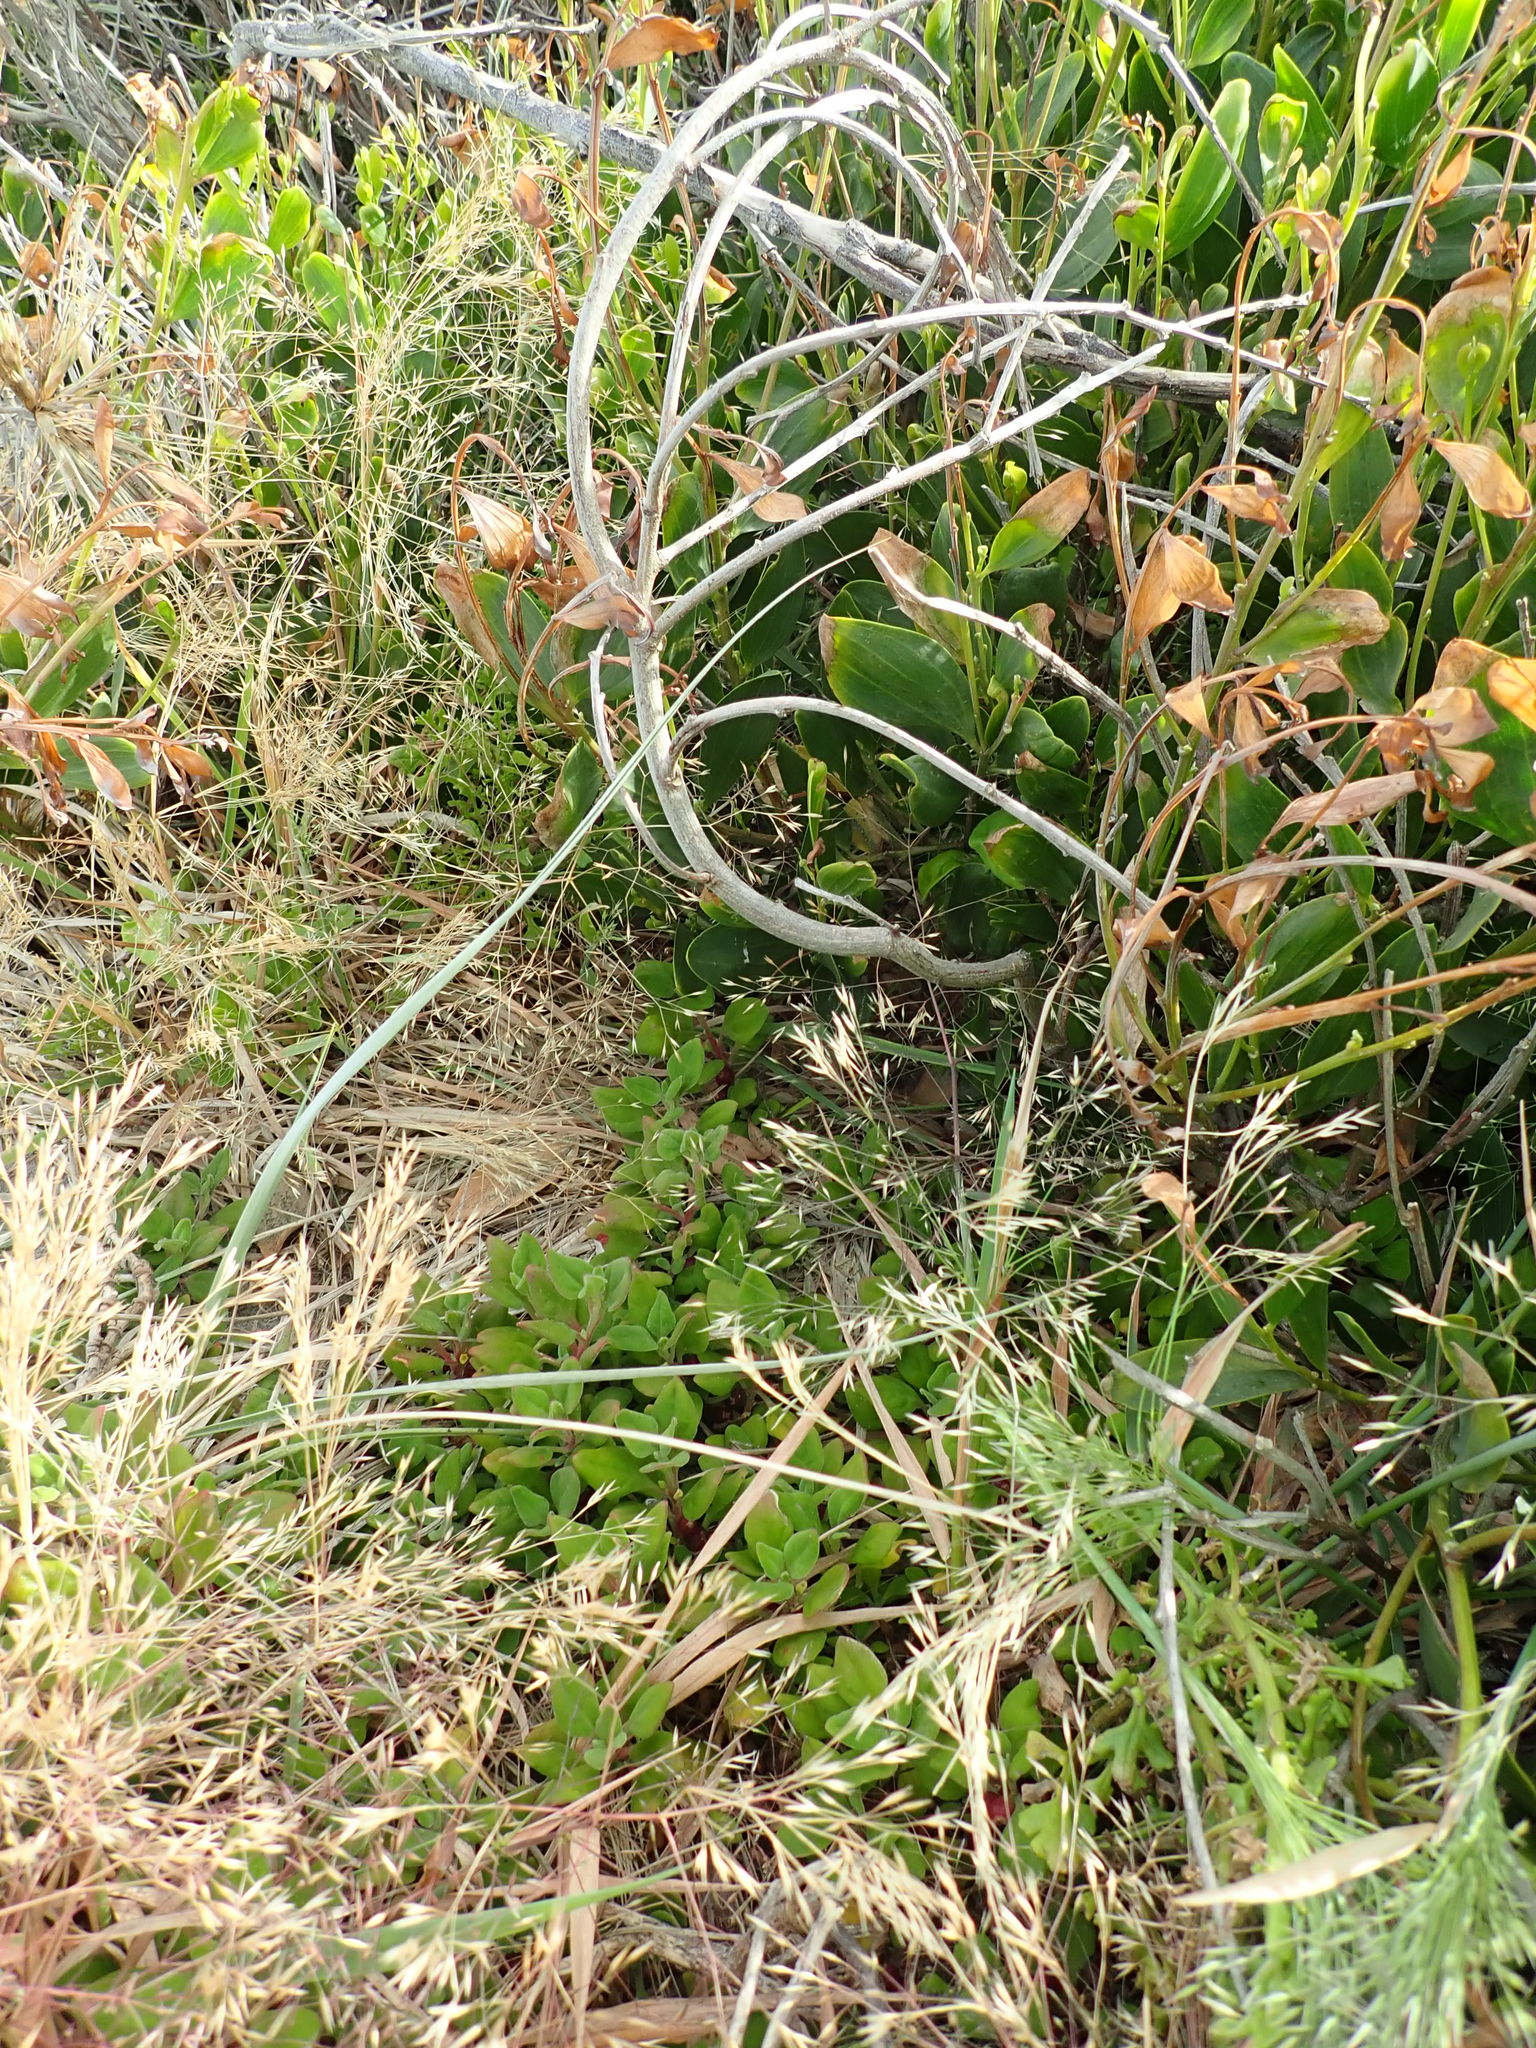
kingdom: Plantae
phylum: Tracheophyta
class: Magnoliopsida
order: Caryophyllales
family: Aizoaceae
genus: Tetragonia
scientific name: Tetragonia implexicoma
